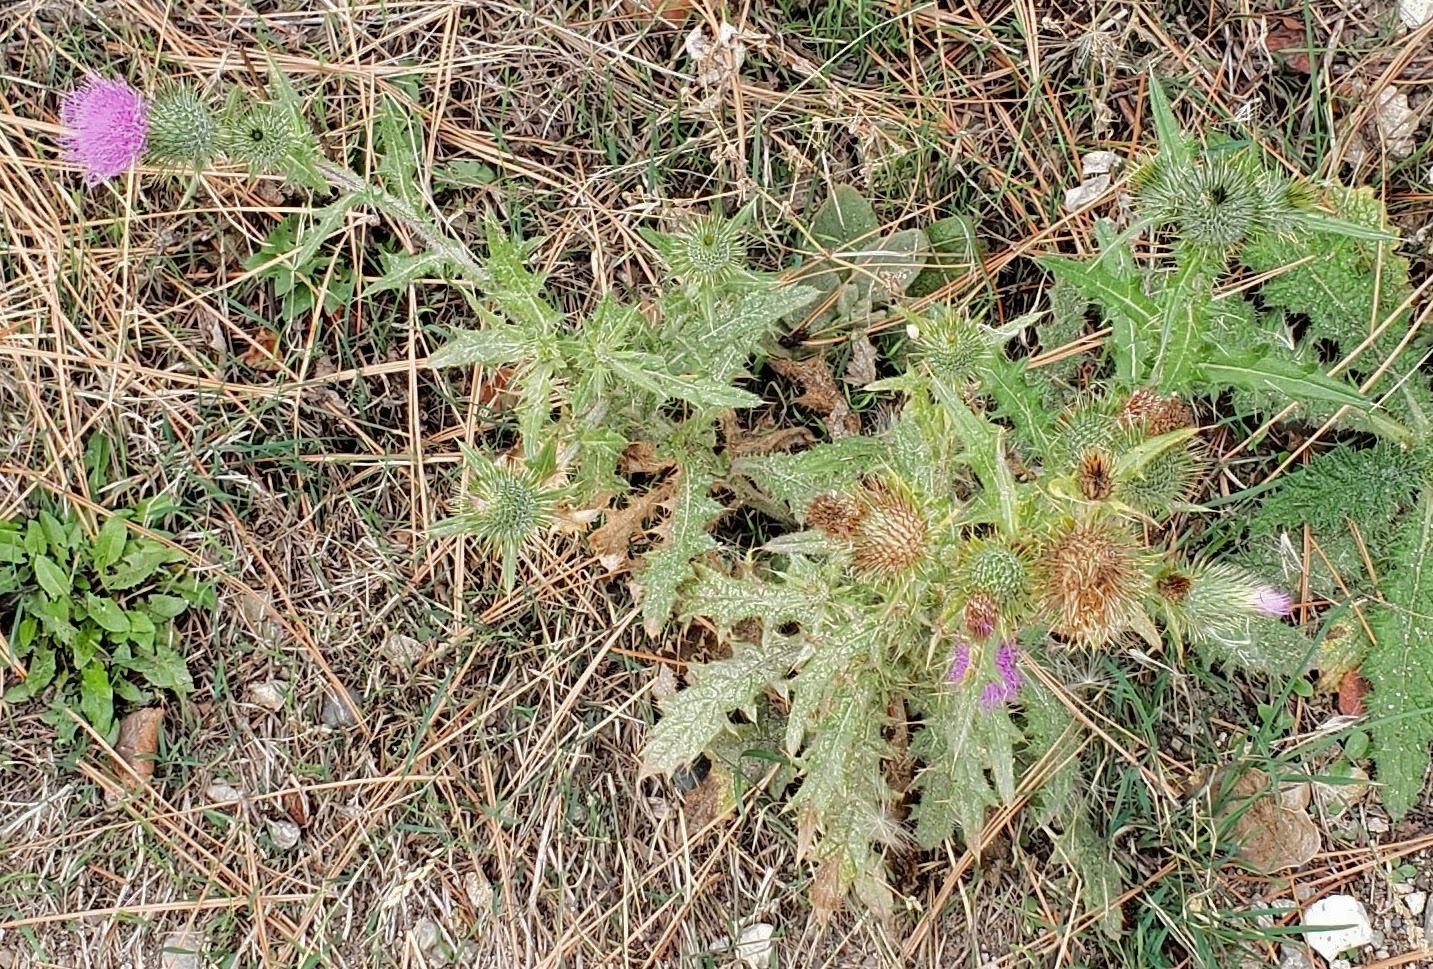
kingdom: Plantae
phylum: Tracheophyta
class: Magnoliopsida
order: Asterales
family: Asteraceae
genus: Cirsium
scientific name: Cirsium vulgare
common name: Bull thistle
